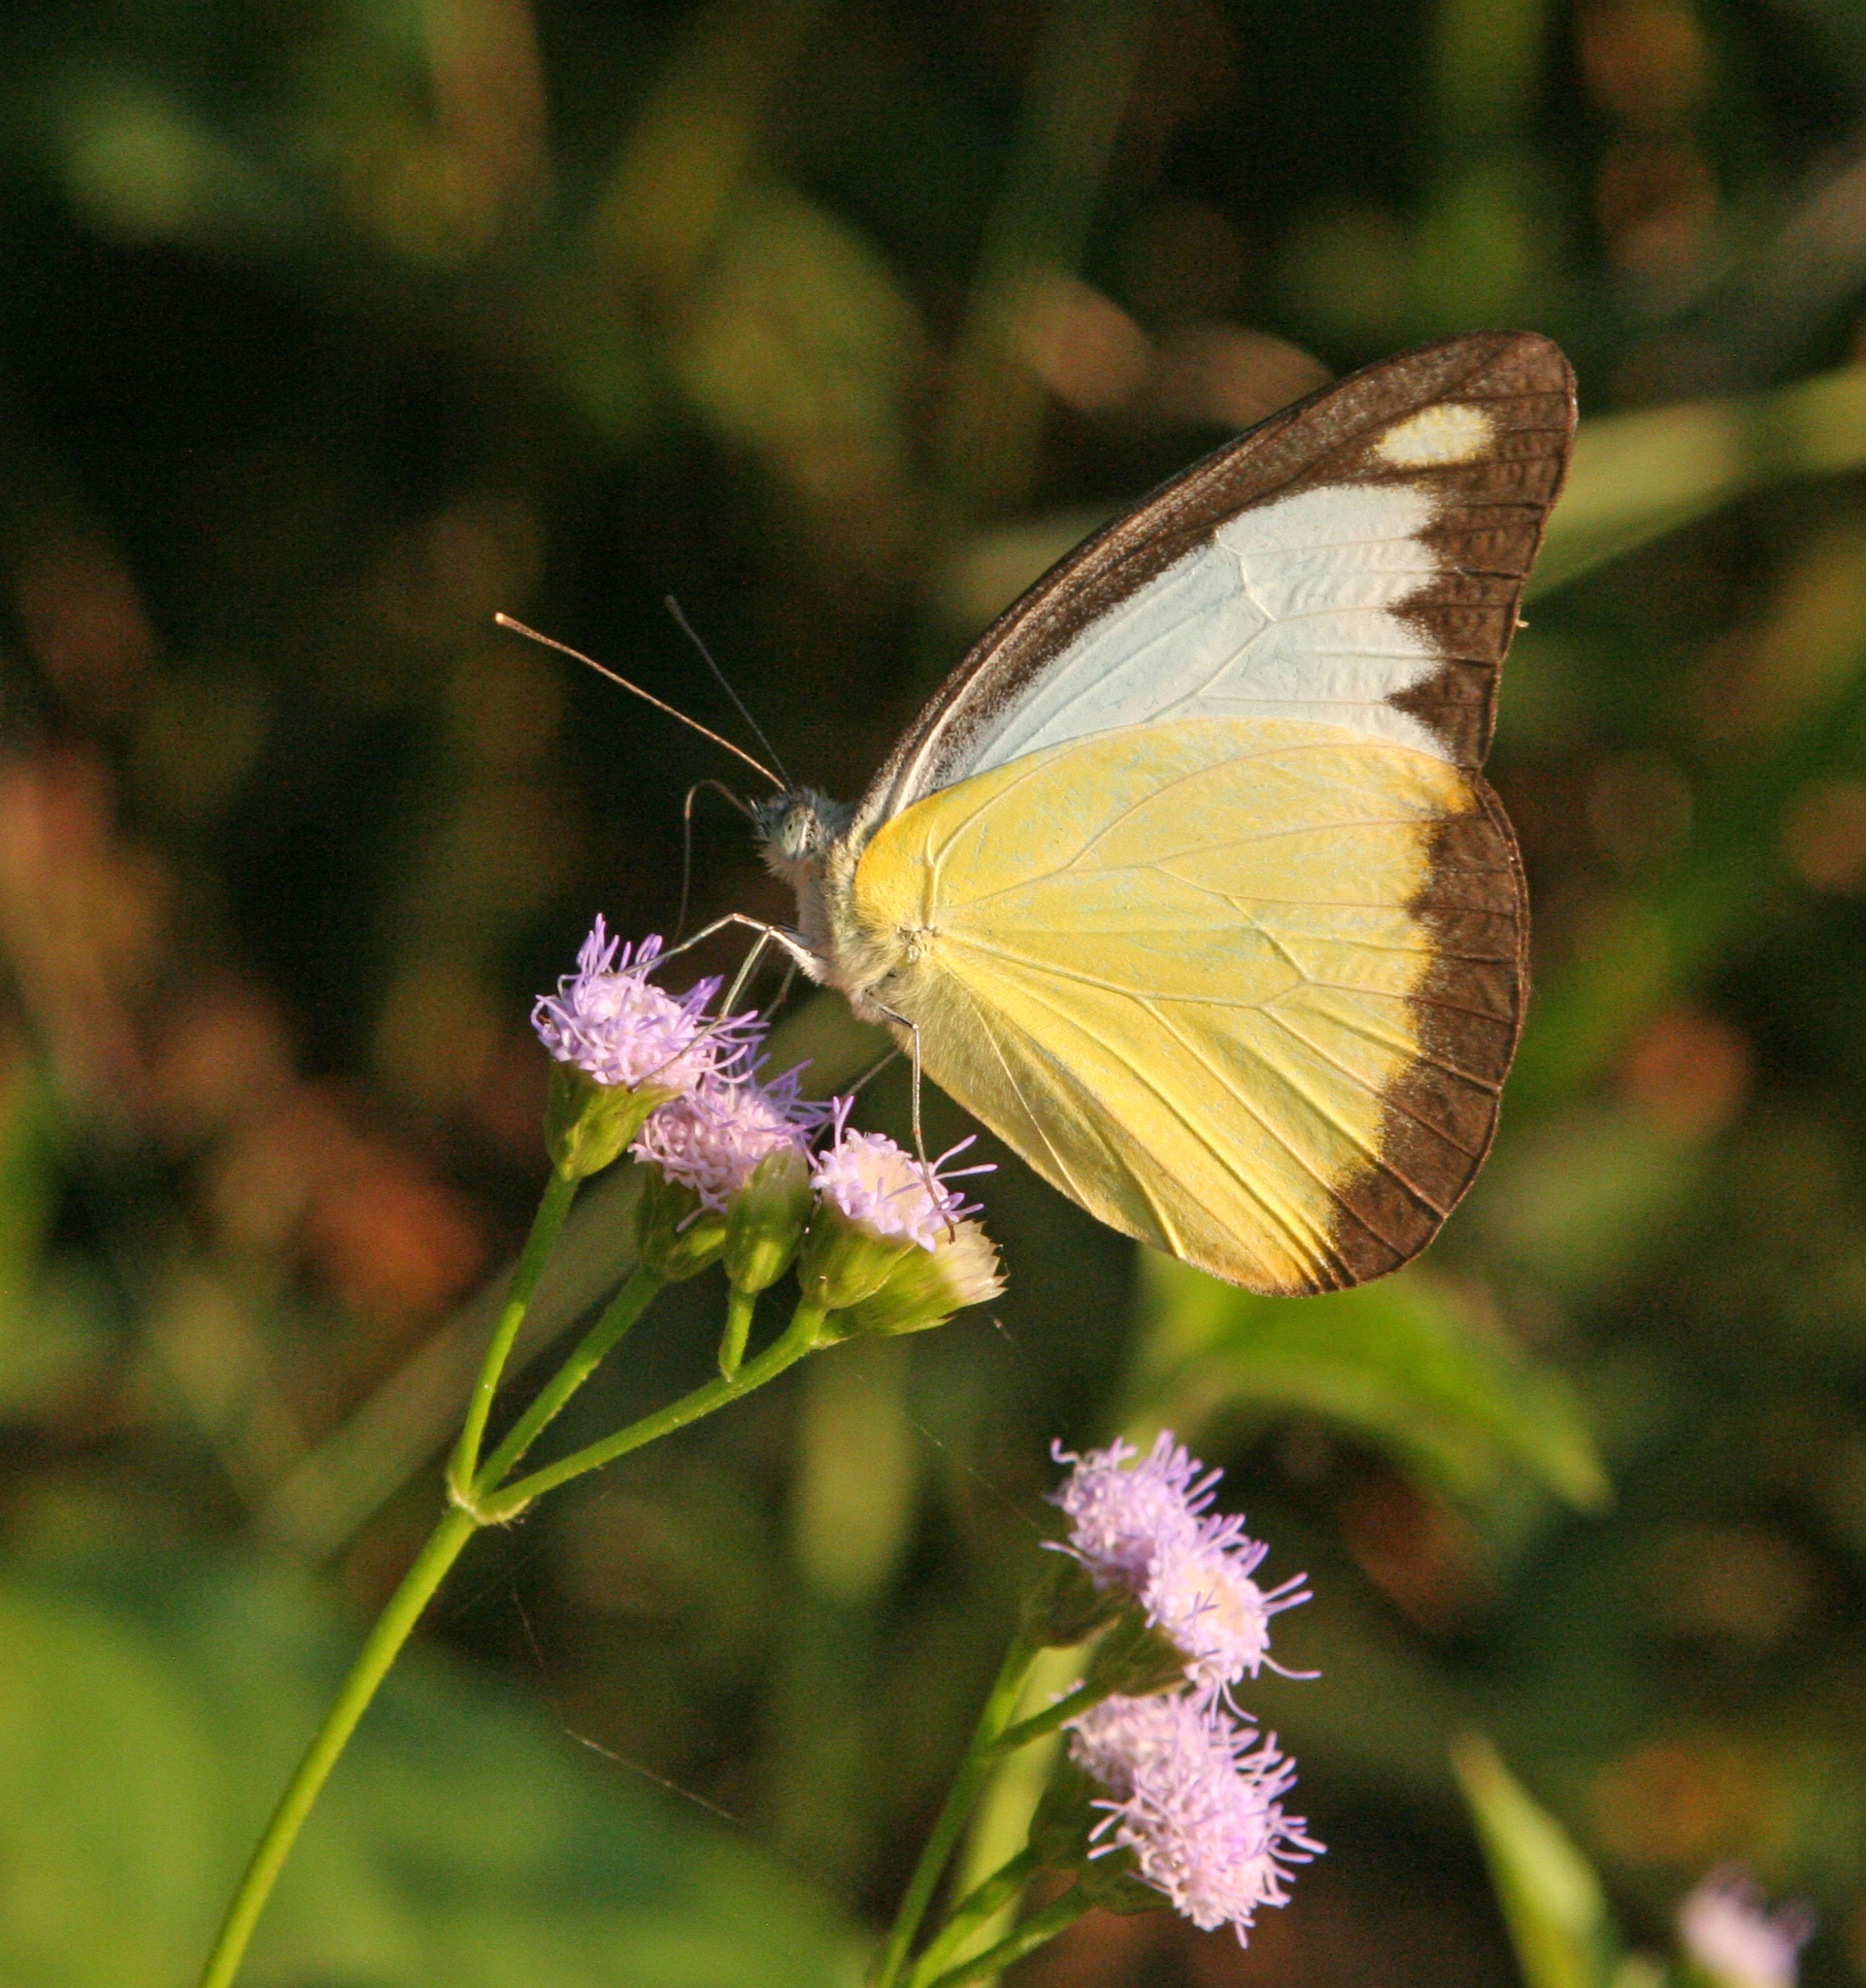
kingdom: Animalia
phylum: Arthropoda
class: Insecta
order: Lepidoptera
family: Pieridae
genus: Appias
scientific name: Appias lyncida
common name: Chocolate albatross
